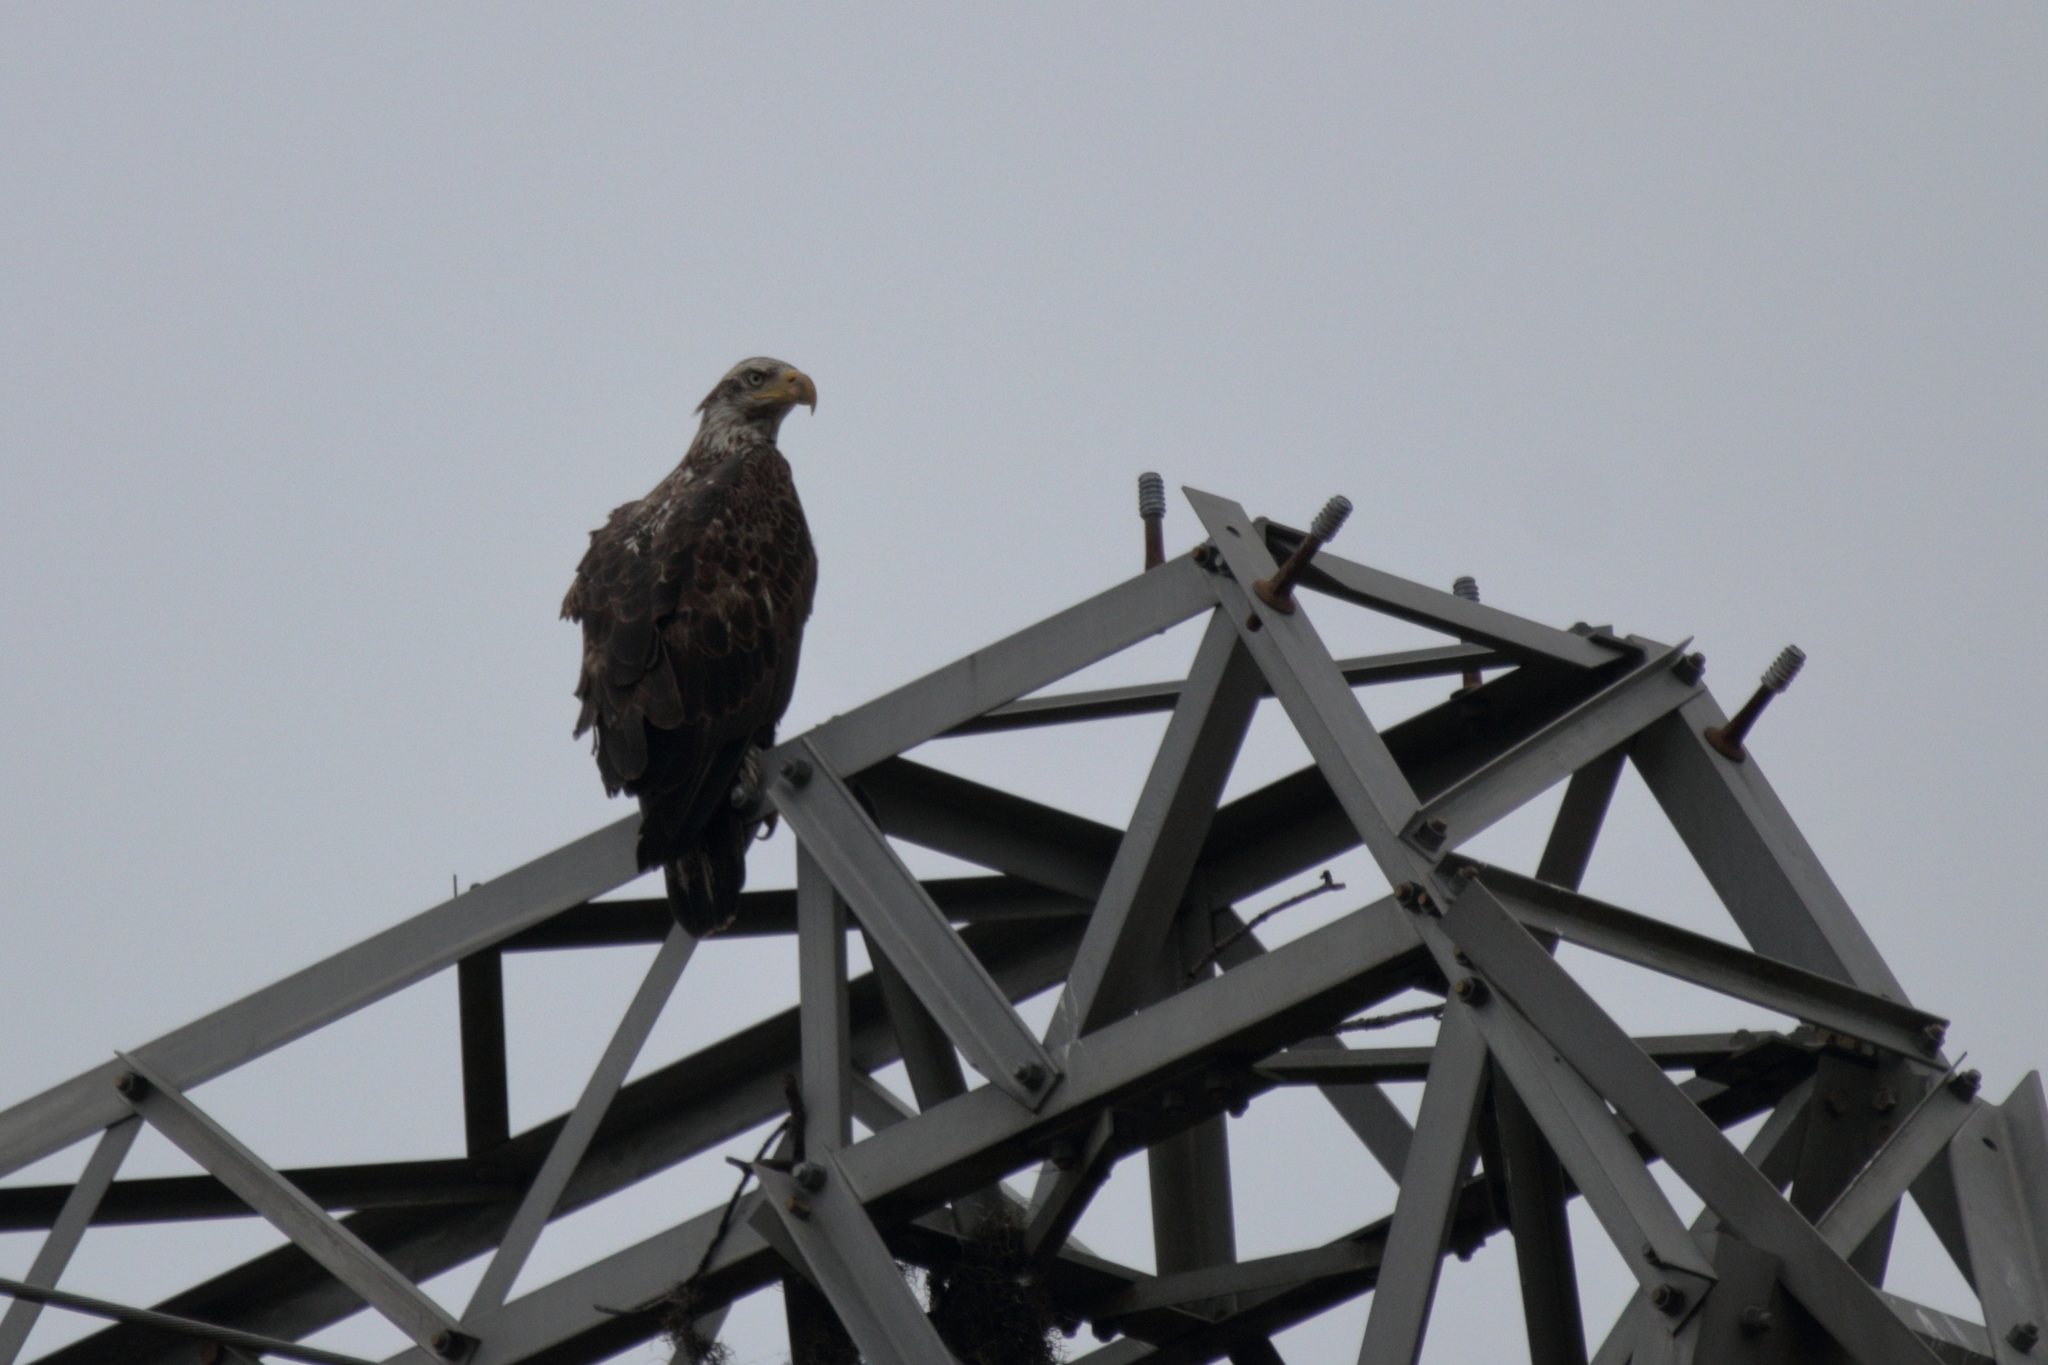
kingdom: Animalia
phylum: Chordata
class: Aves
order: Accipitriformes
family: Accipitridae
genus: Haliaeetus
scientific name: Haliaeetus leucocephalus
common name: Bald eagle
